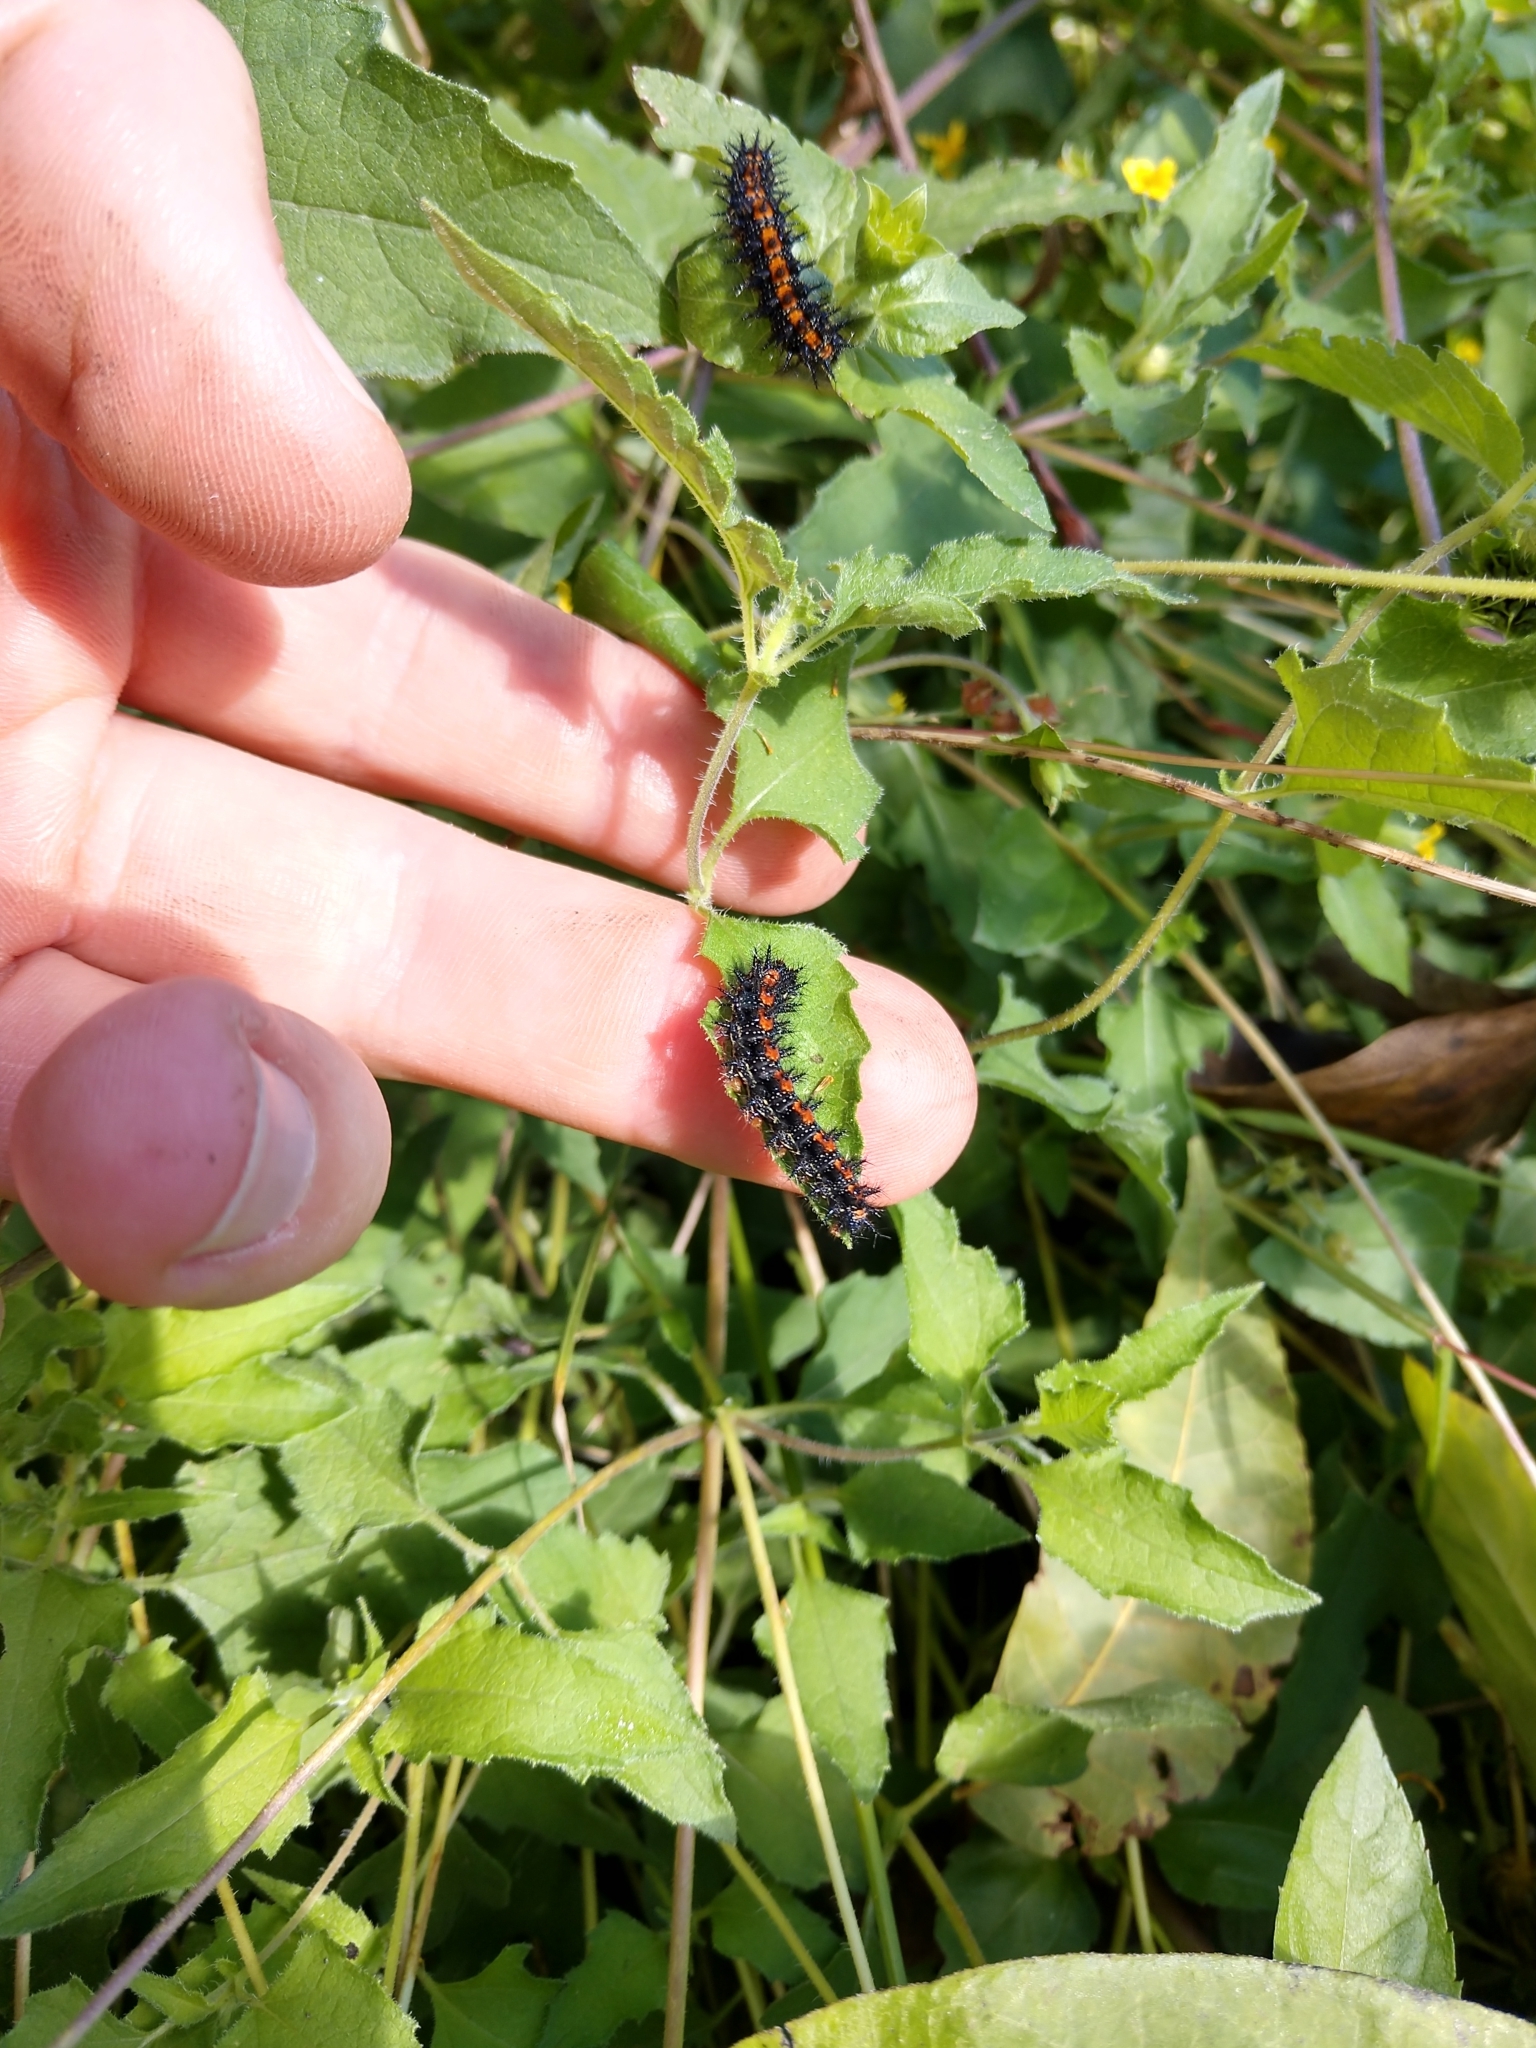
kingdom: Animalia
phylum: Arthropoda
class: Insecta
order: Lepidoptera
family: Nymphalidae
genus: Chlosyne
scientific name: Chlosyne lacinia
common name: Bordered patch
